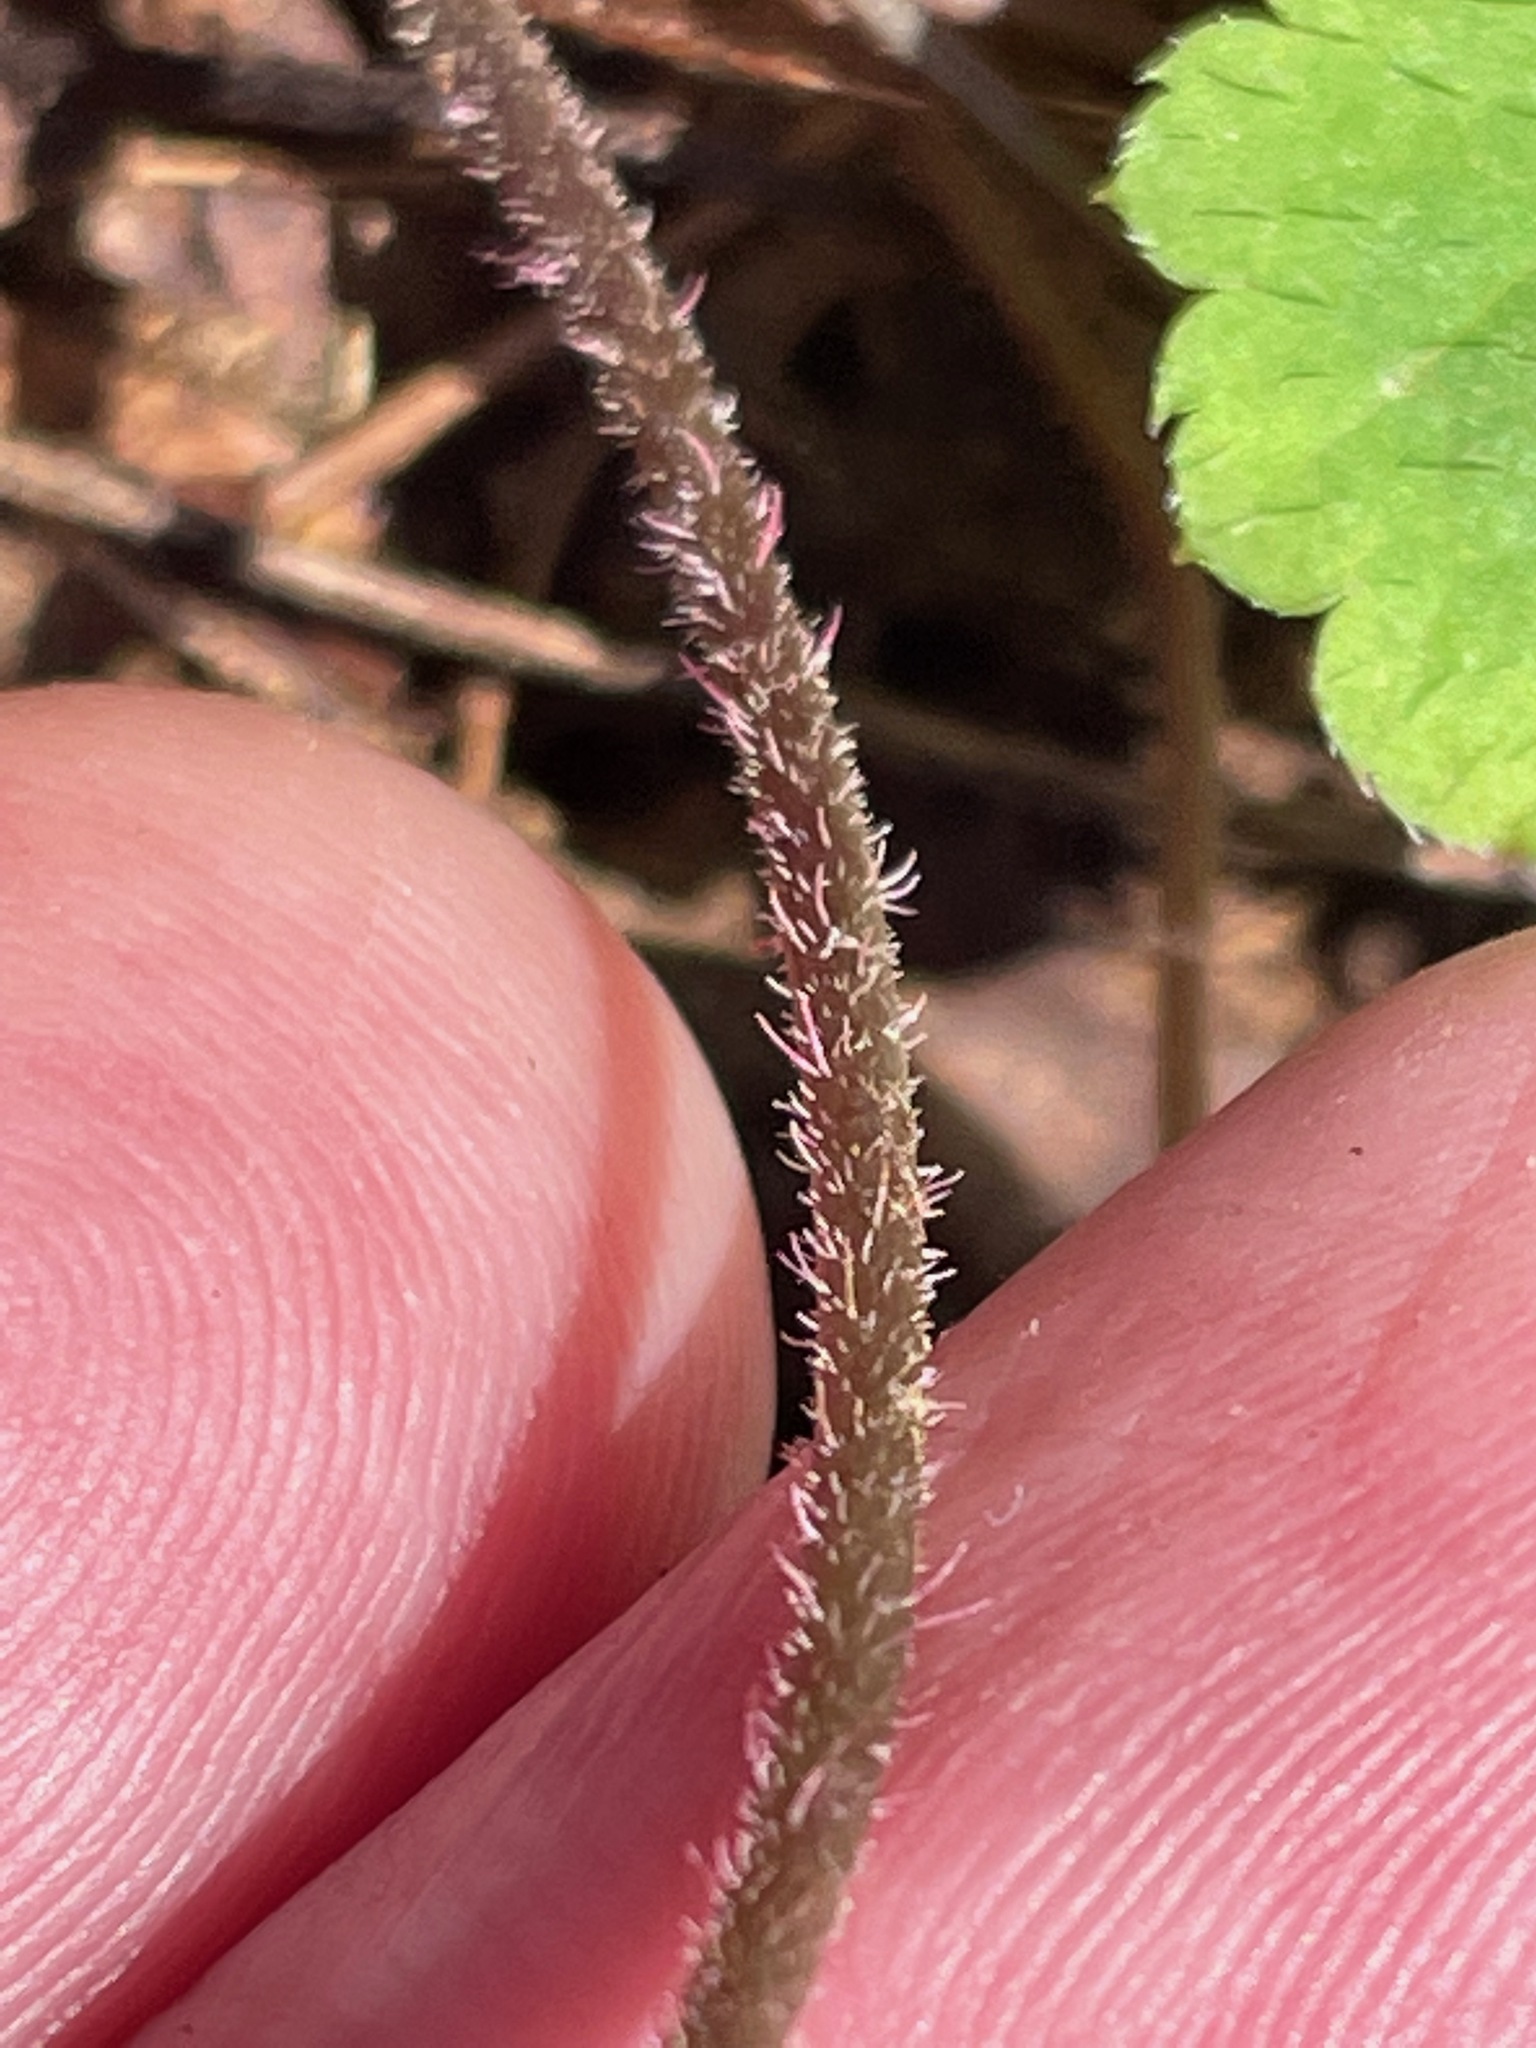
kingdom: Plantae
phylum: Tracheophyta
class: Magnoliopsida
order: Saxifragales
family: Saxifragaceae
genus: Tiarella
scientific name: Tiarella stolonifera
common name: Stoloniferous foamflower
